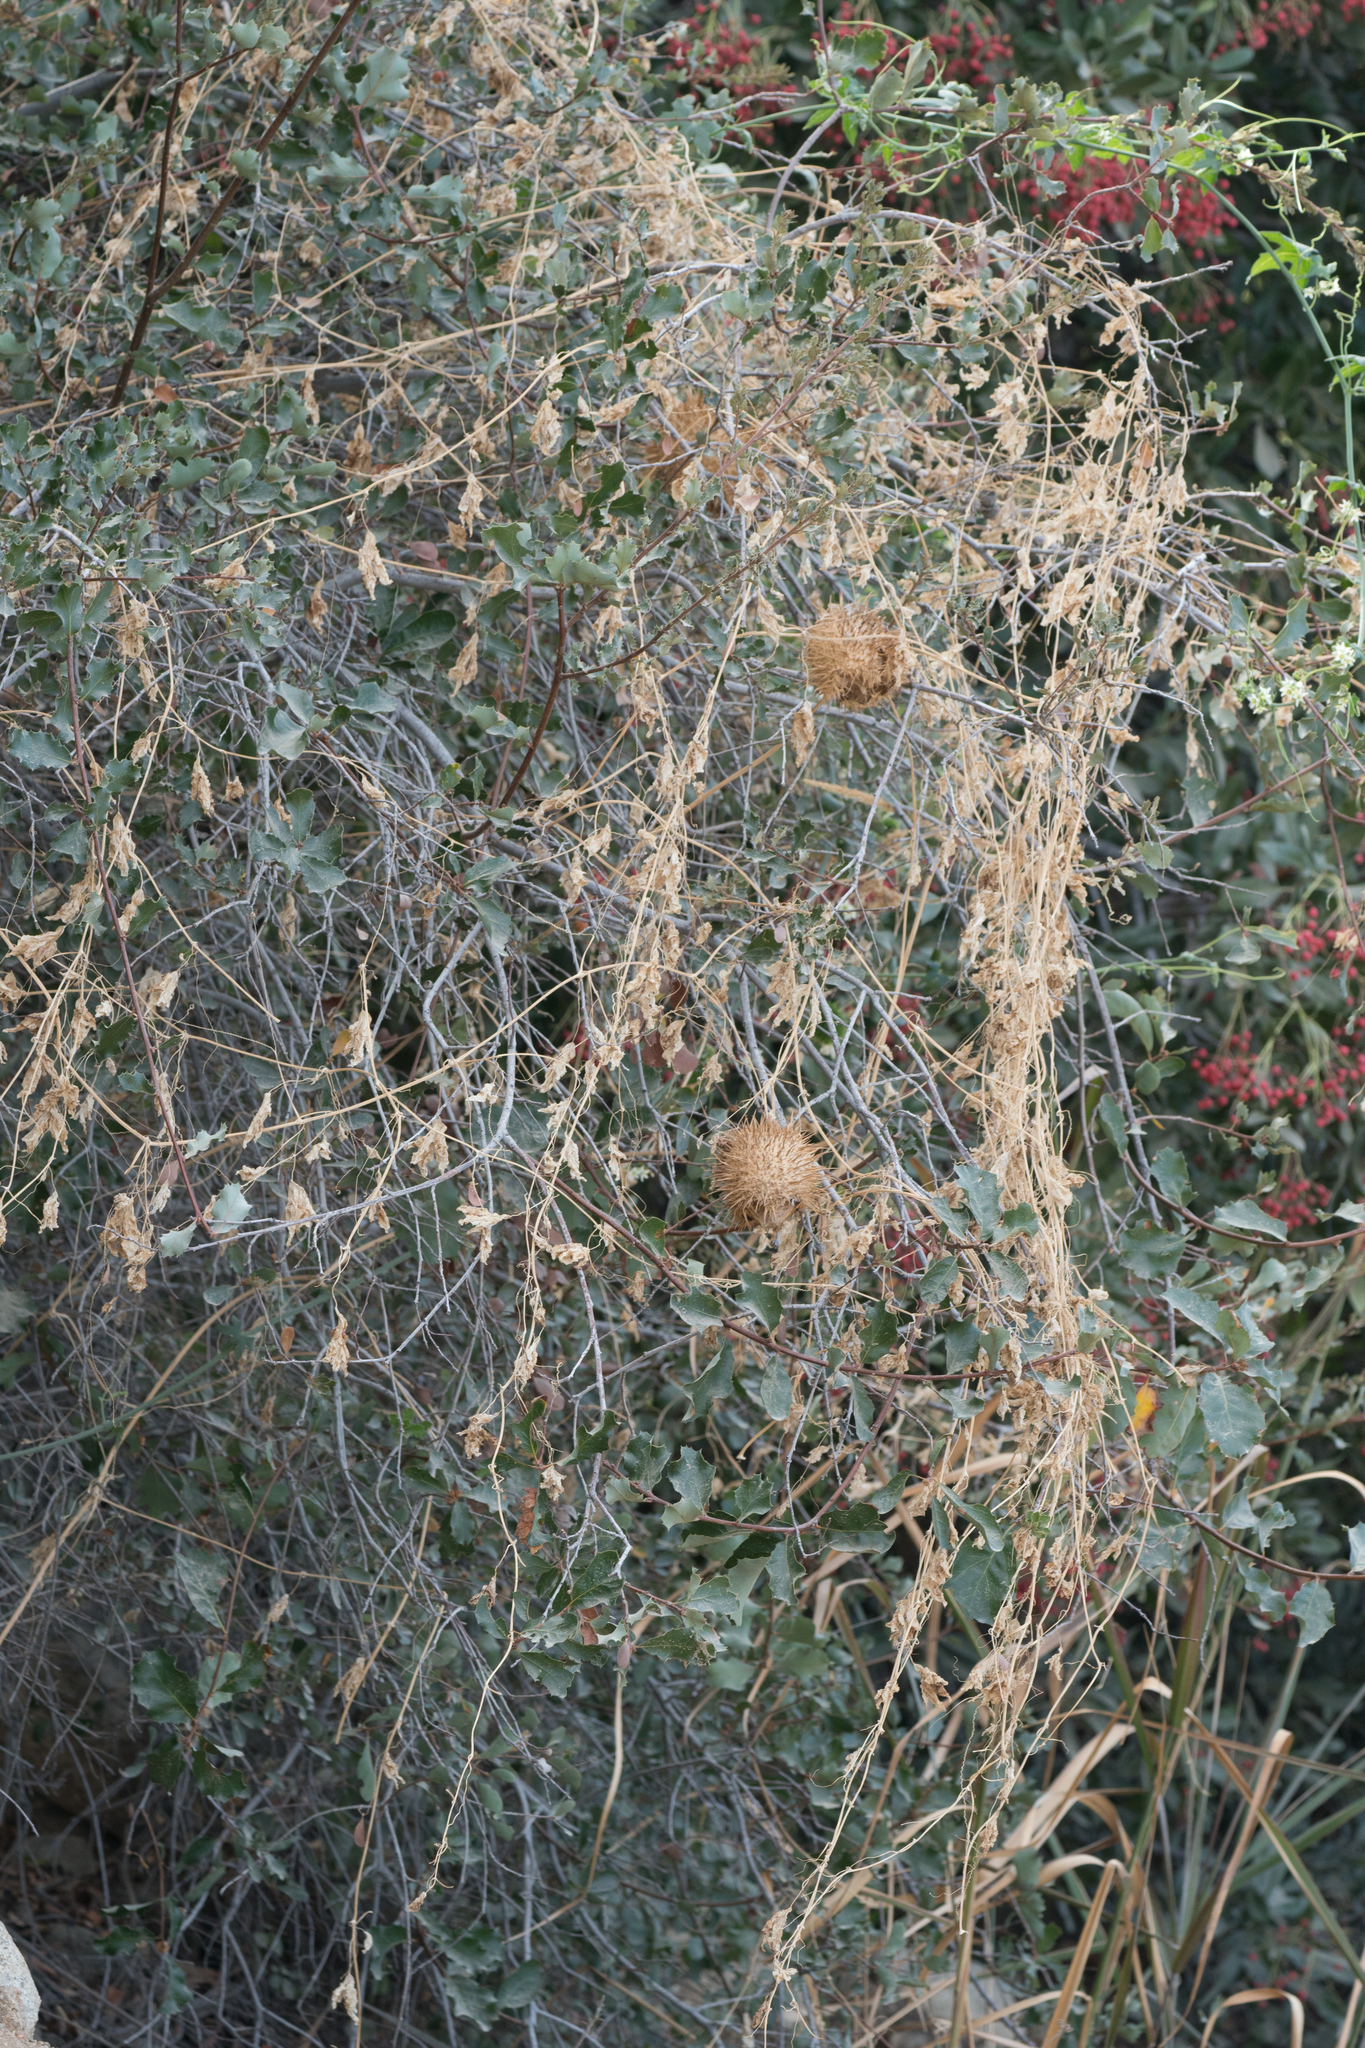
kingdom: Plantae
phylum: Tracheophyta
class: Magnoliopsida
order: Cucurbitales
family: Cucurbitaceae
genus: Marah
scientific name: Marah macrocarpa
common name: Cucamonga manroot
